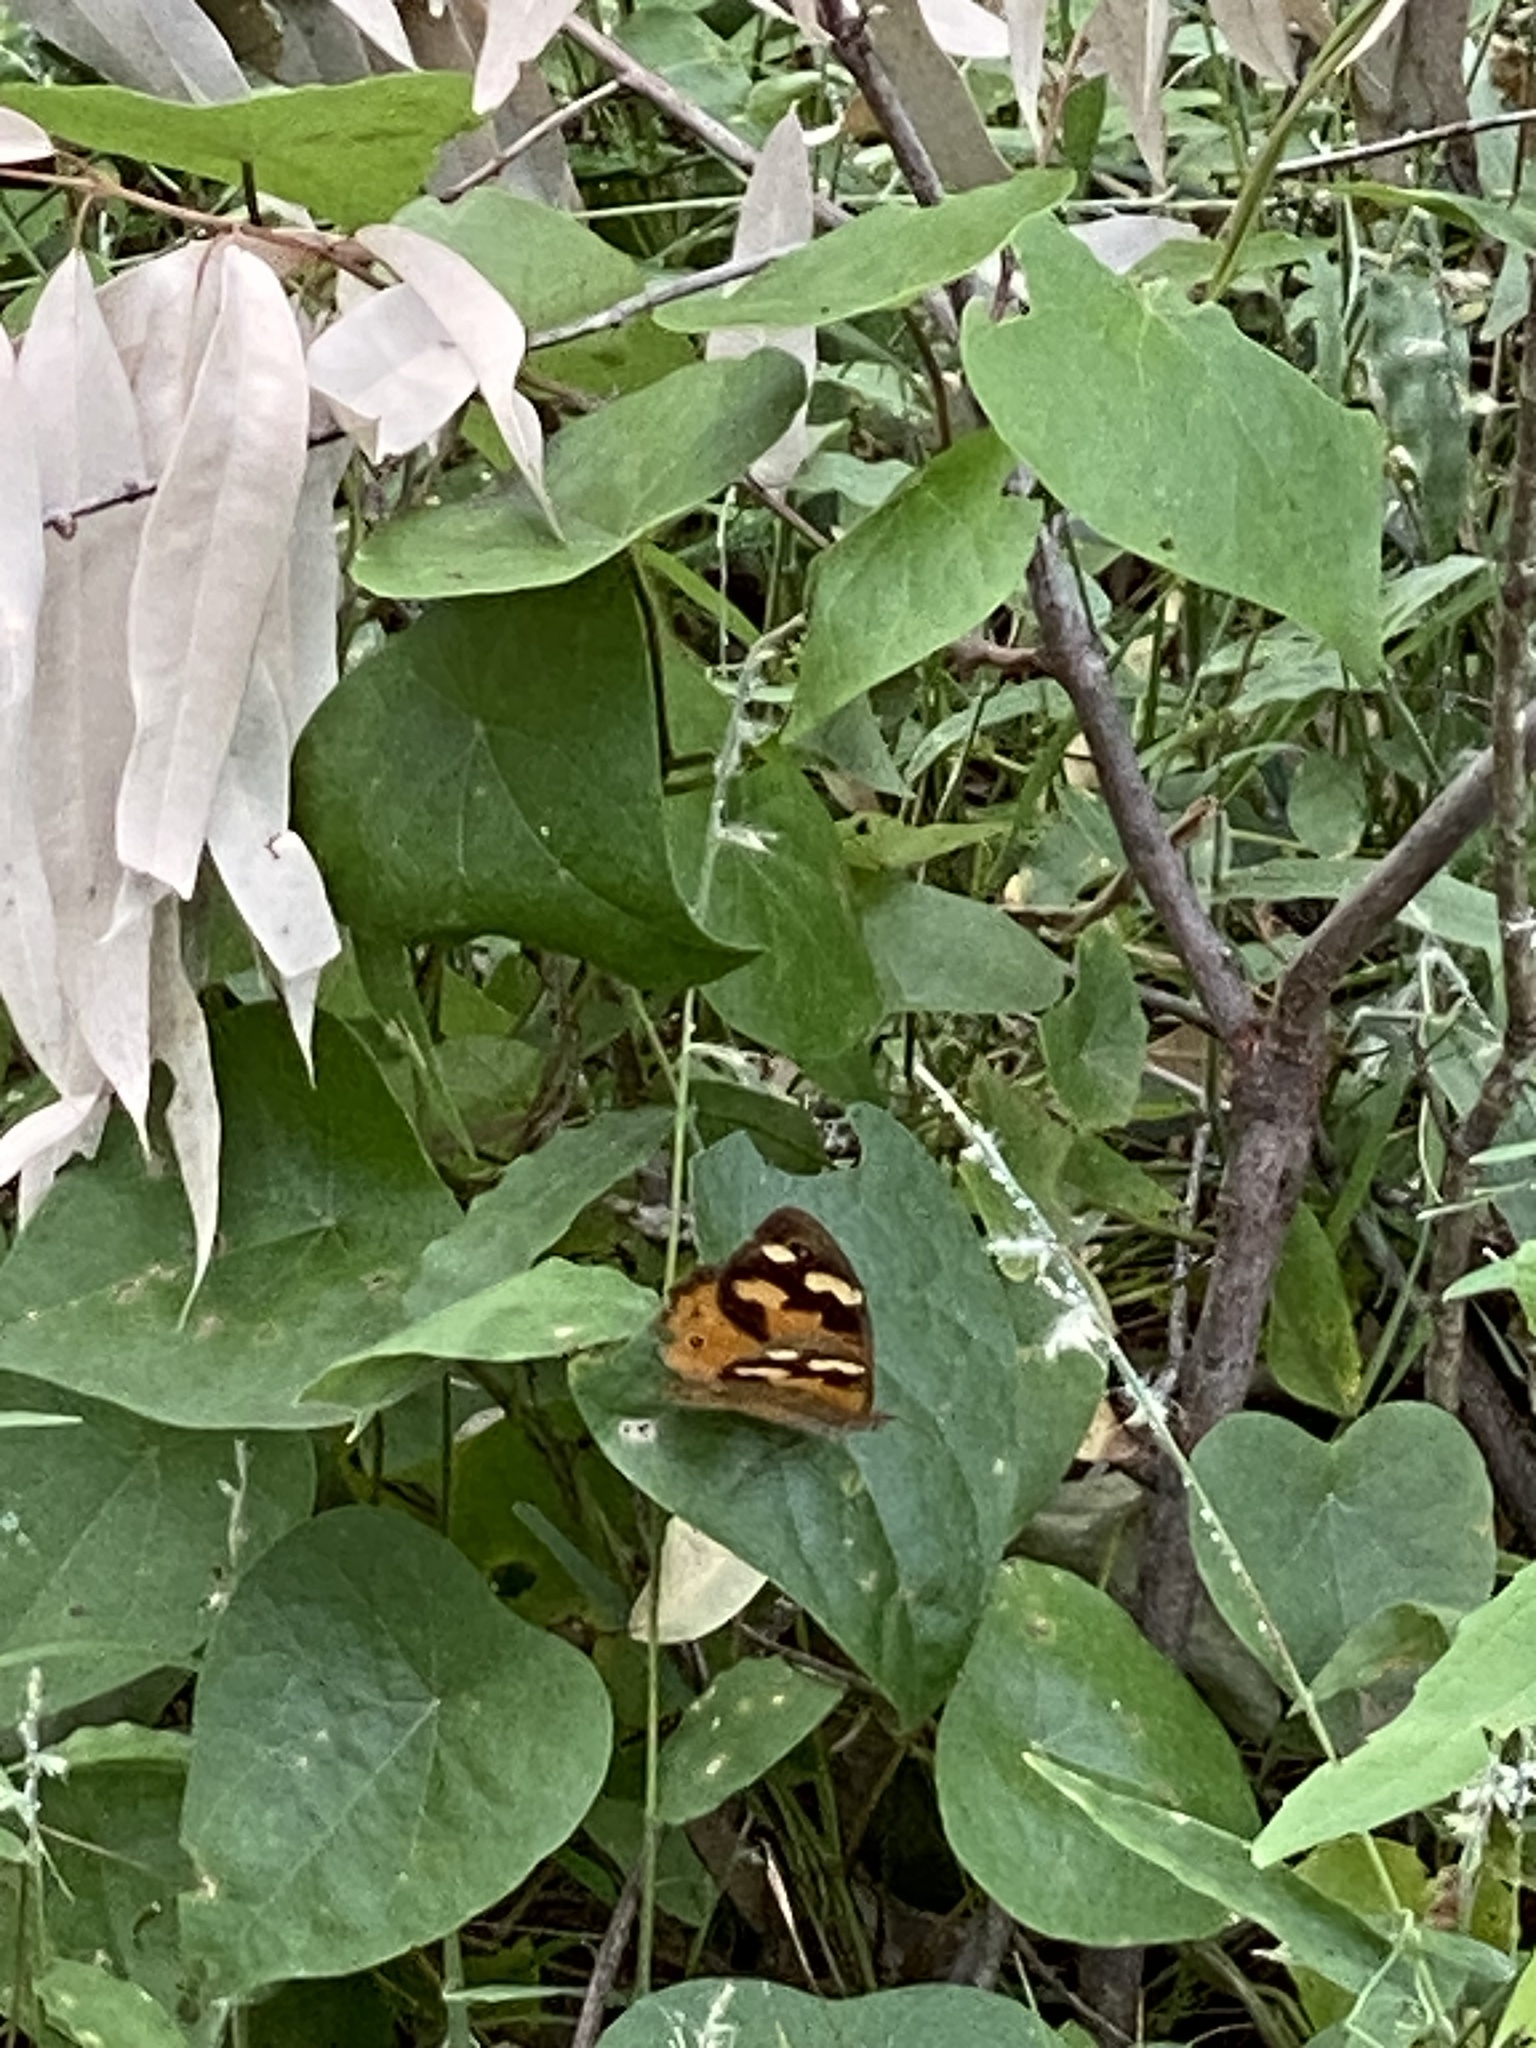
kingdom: Animalia
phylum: Arthropoda
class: Insecta
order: Lepidoptera
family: Nymphalidae
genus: Heteronympha
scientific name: Heteronympha merope
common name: Common brown
